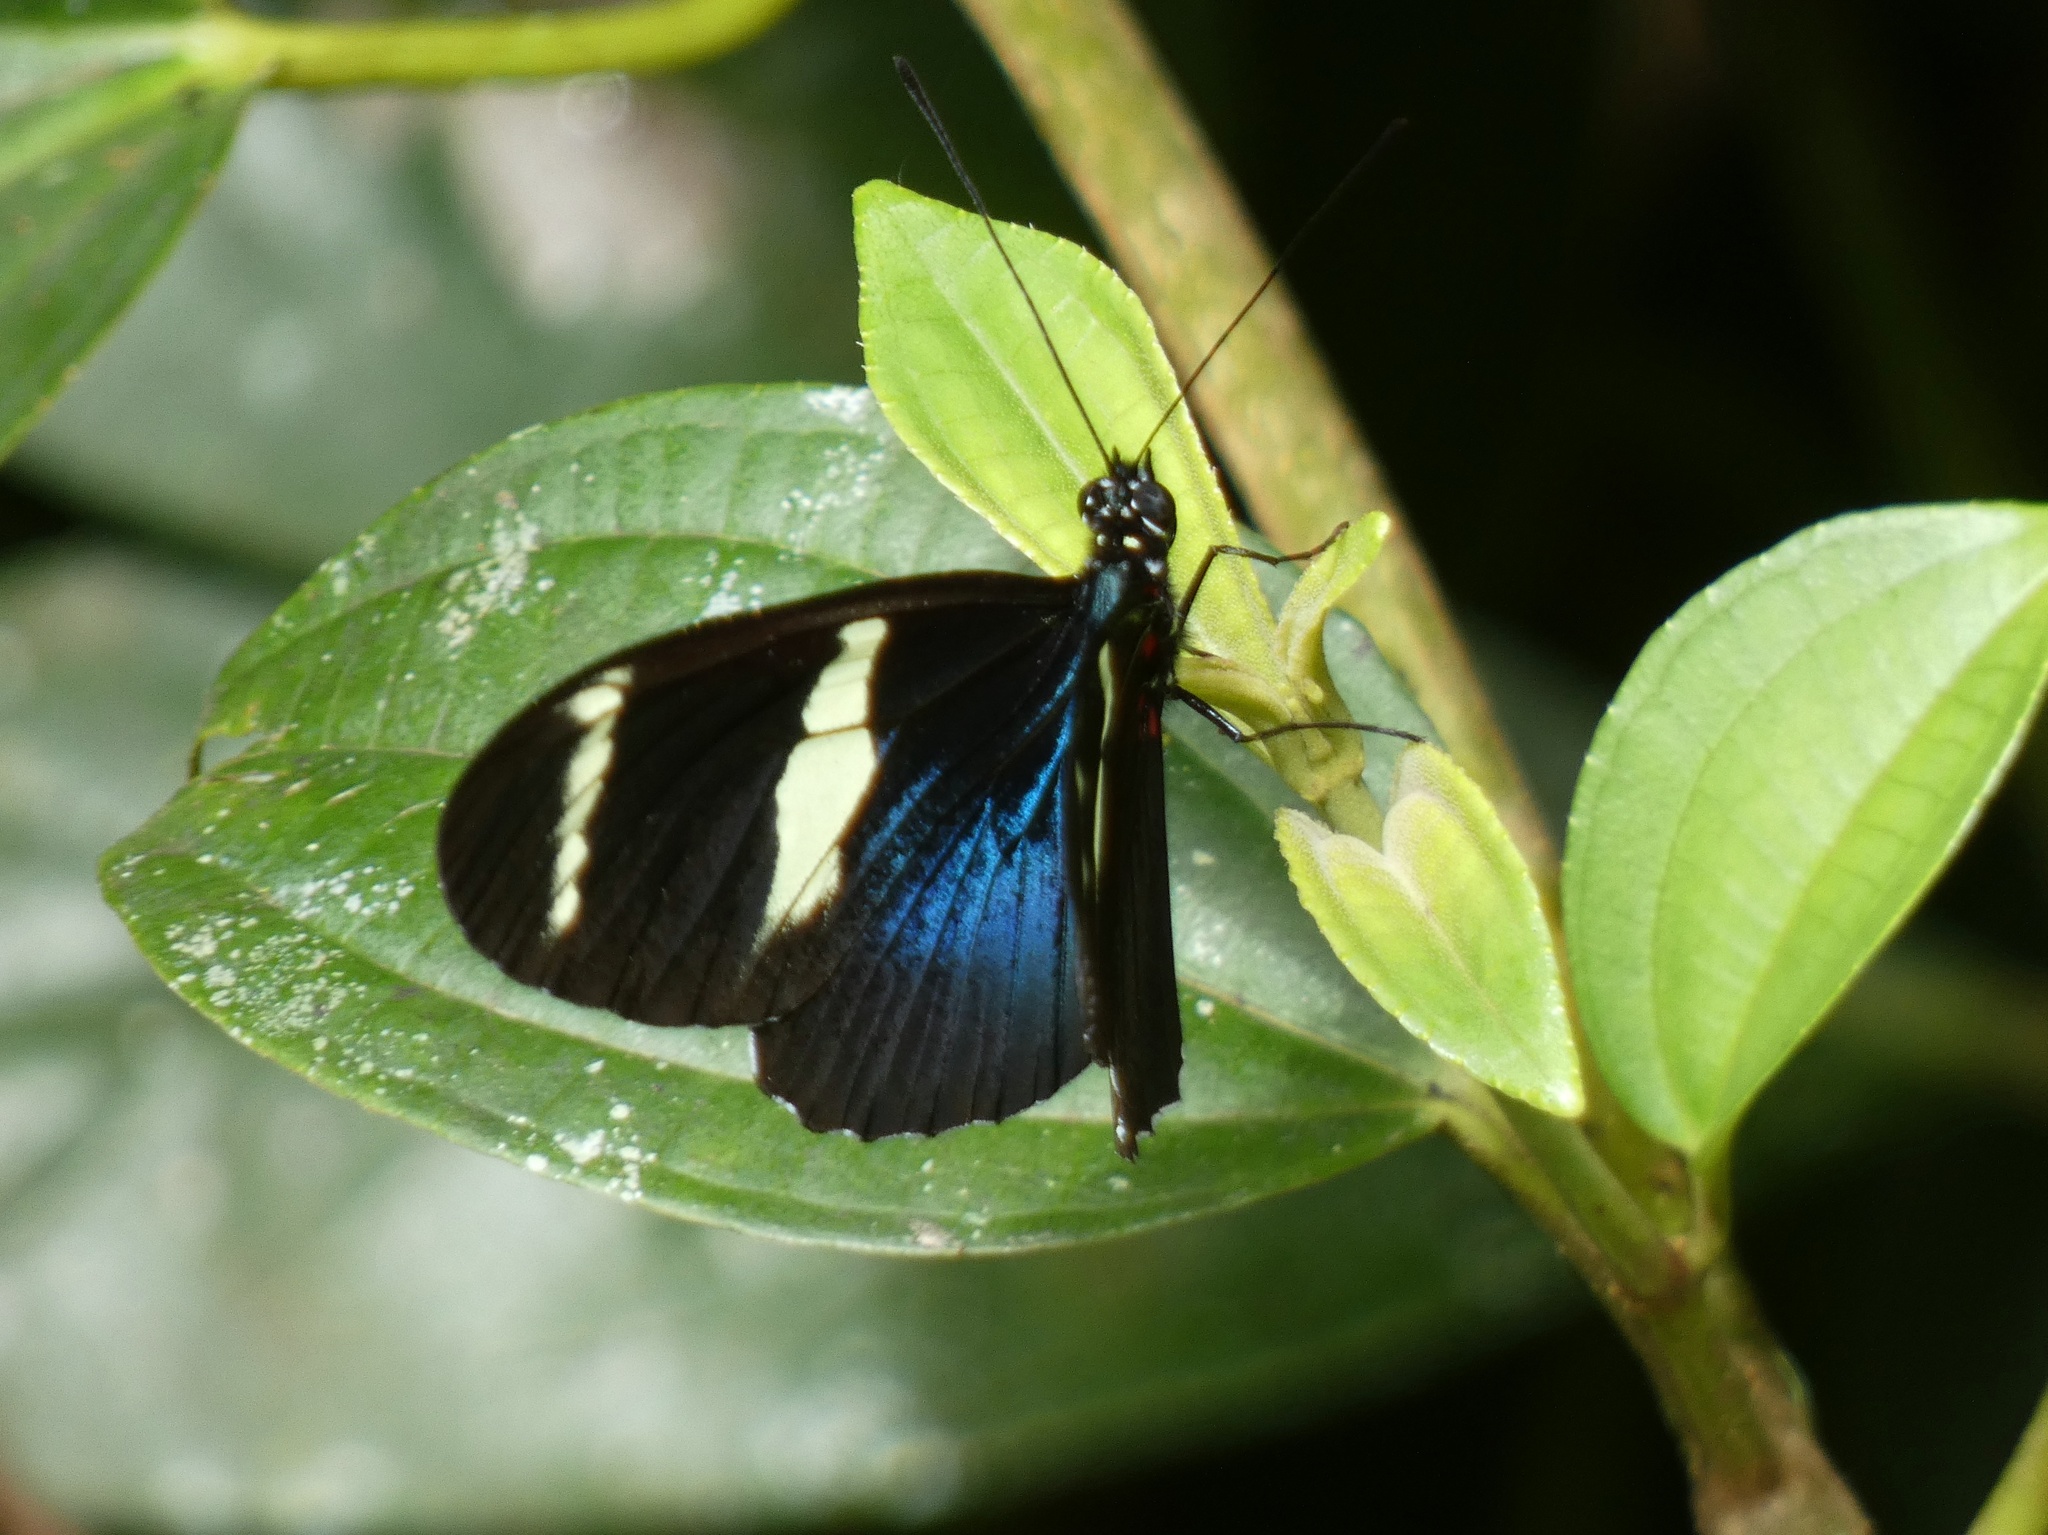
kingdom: Animalia
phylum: Arthropoda
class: Insecta
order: Lepidoptera
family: Nymphalidae
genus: Heliconius
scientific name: Heliconius sara
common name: Sara longwing
